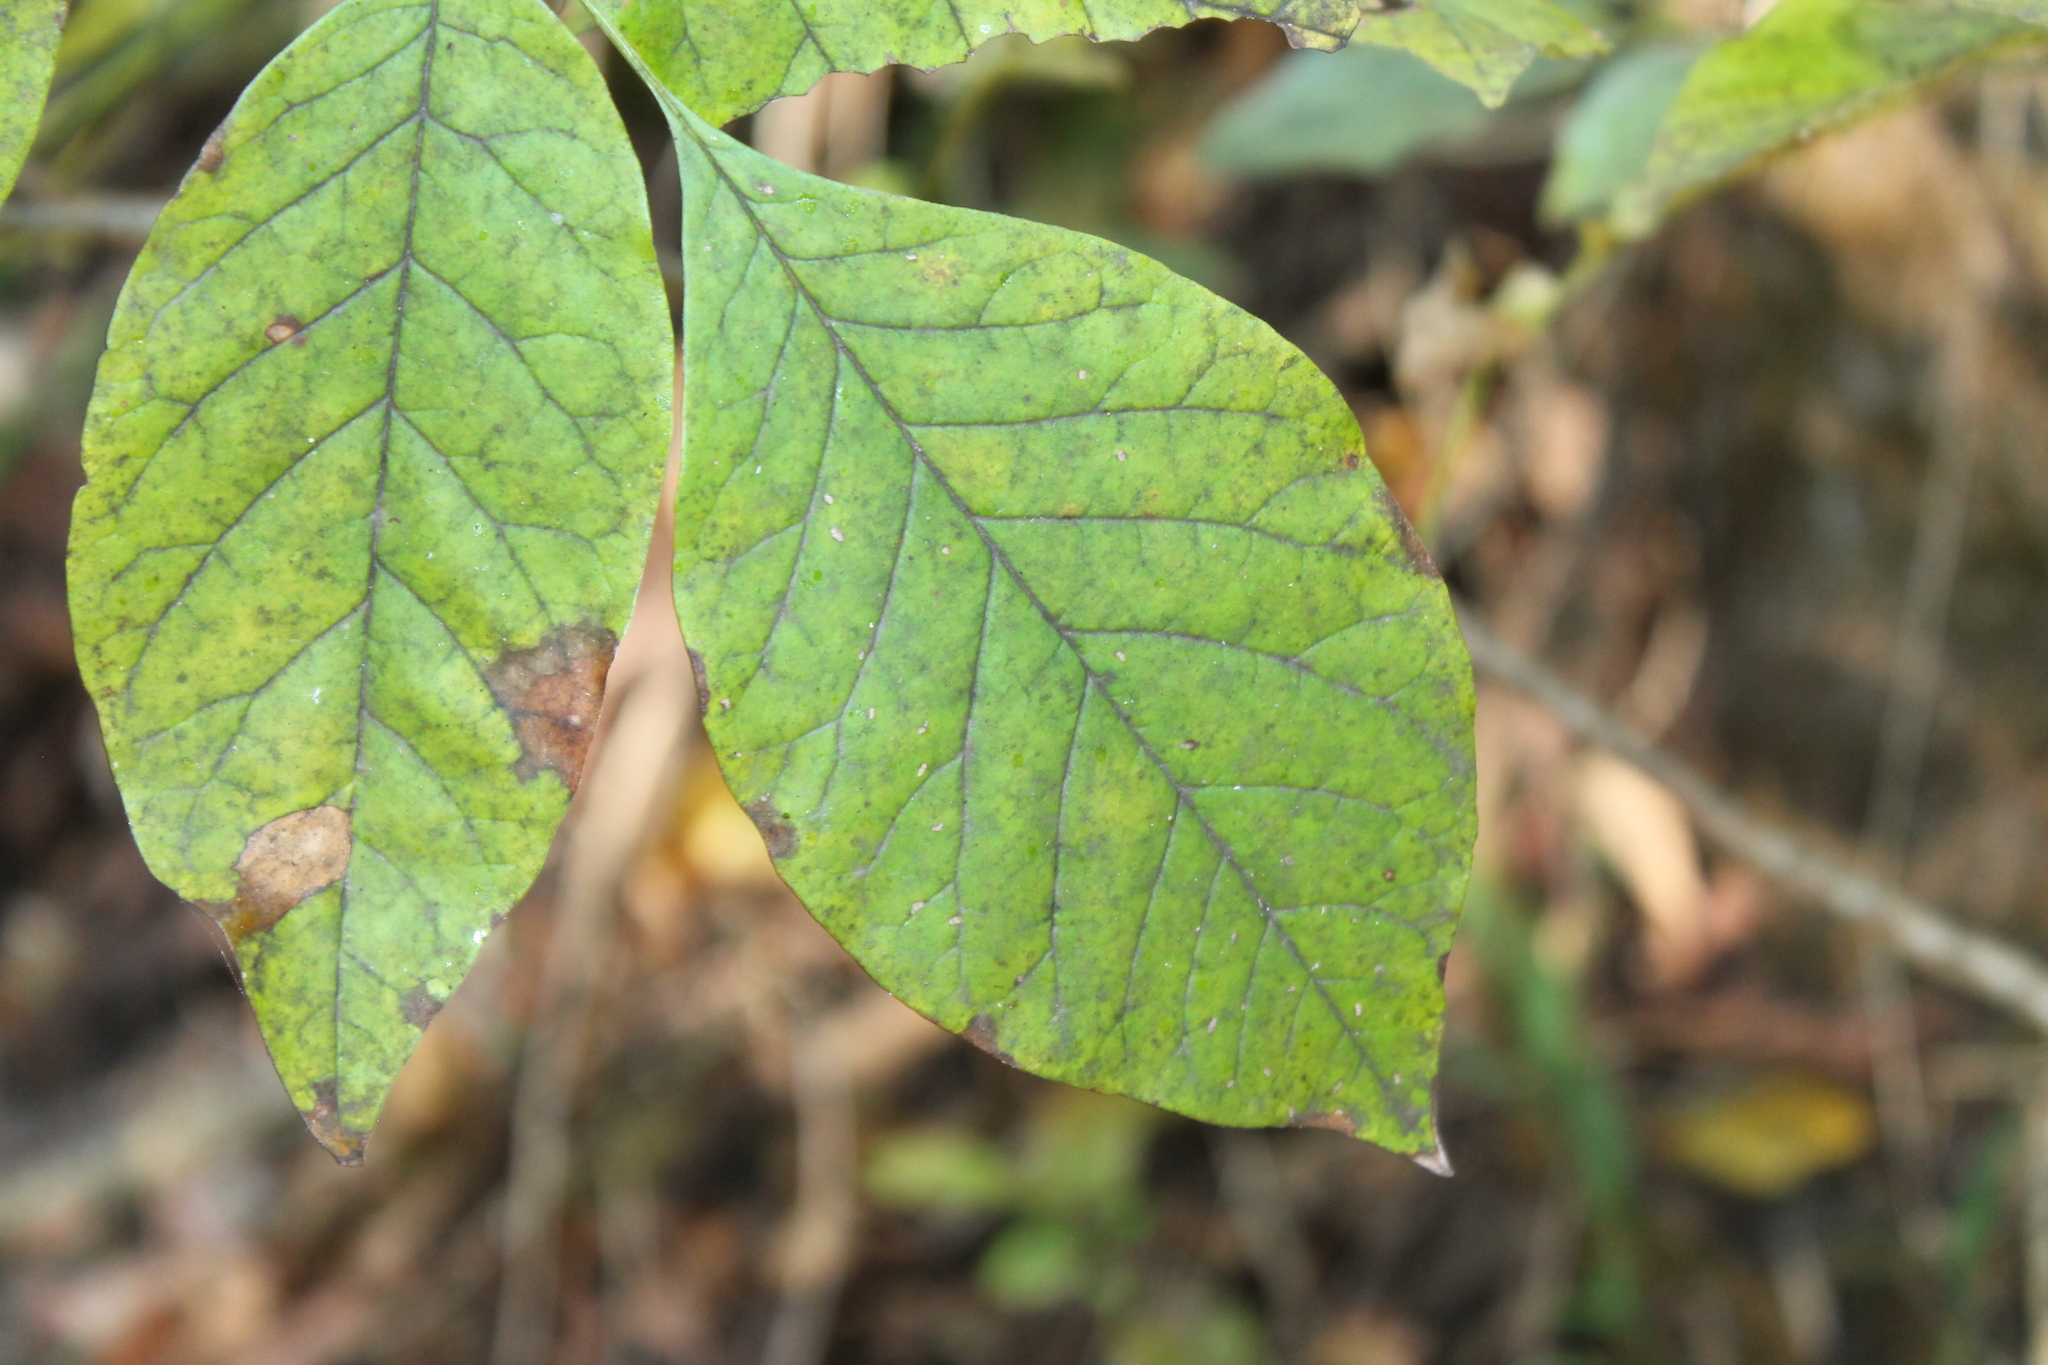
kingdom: Plantae
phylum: Tracheophyta
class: Magnoliopsida
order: Lamiales
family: Oleaceae
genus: Fraxinus
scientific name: Fraxinus americana
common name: White ash
